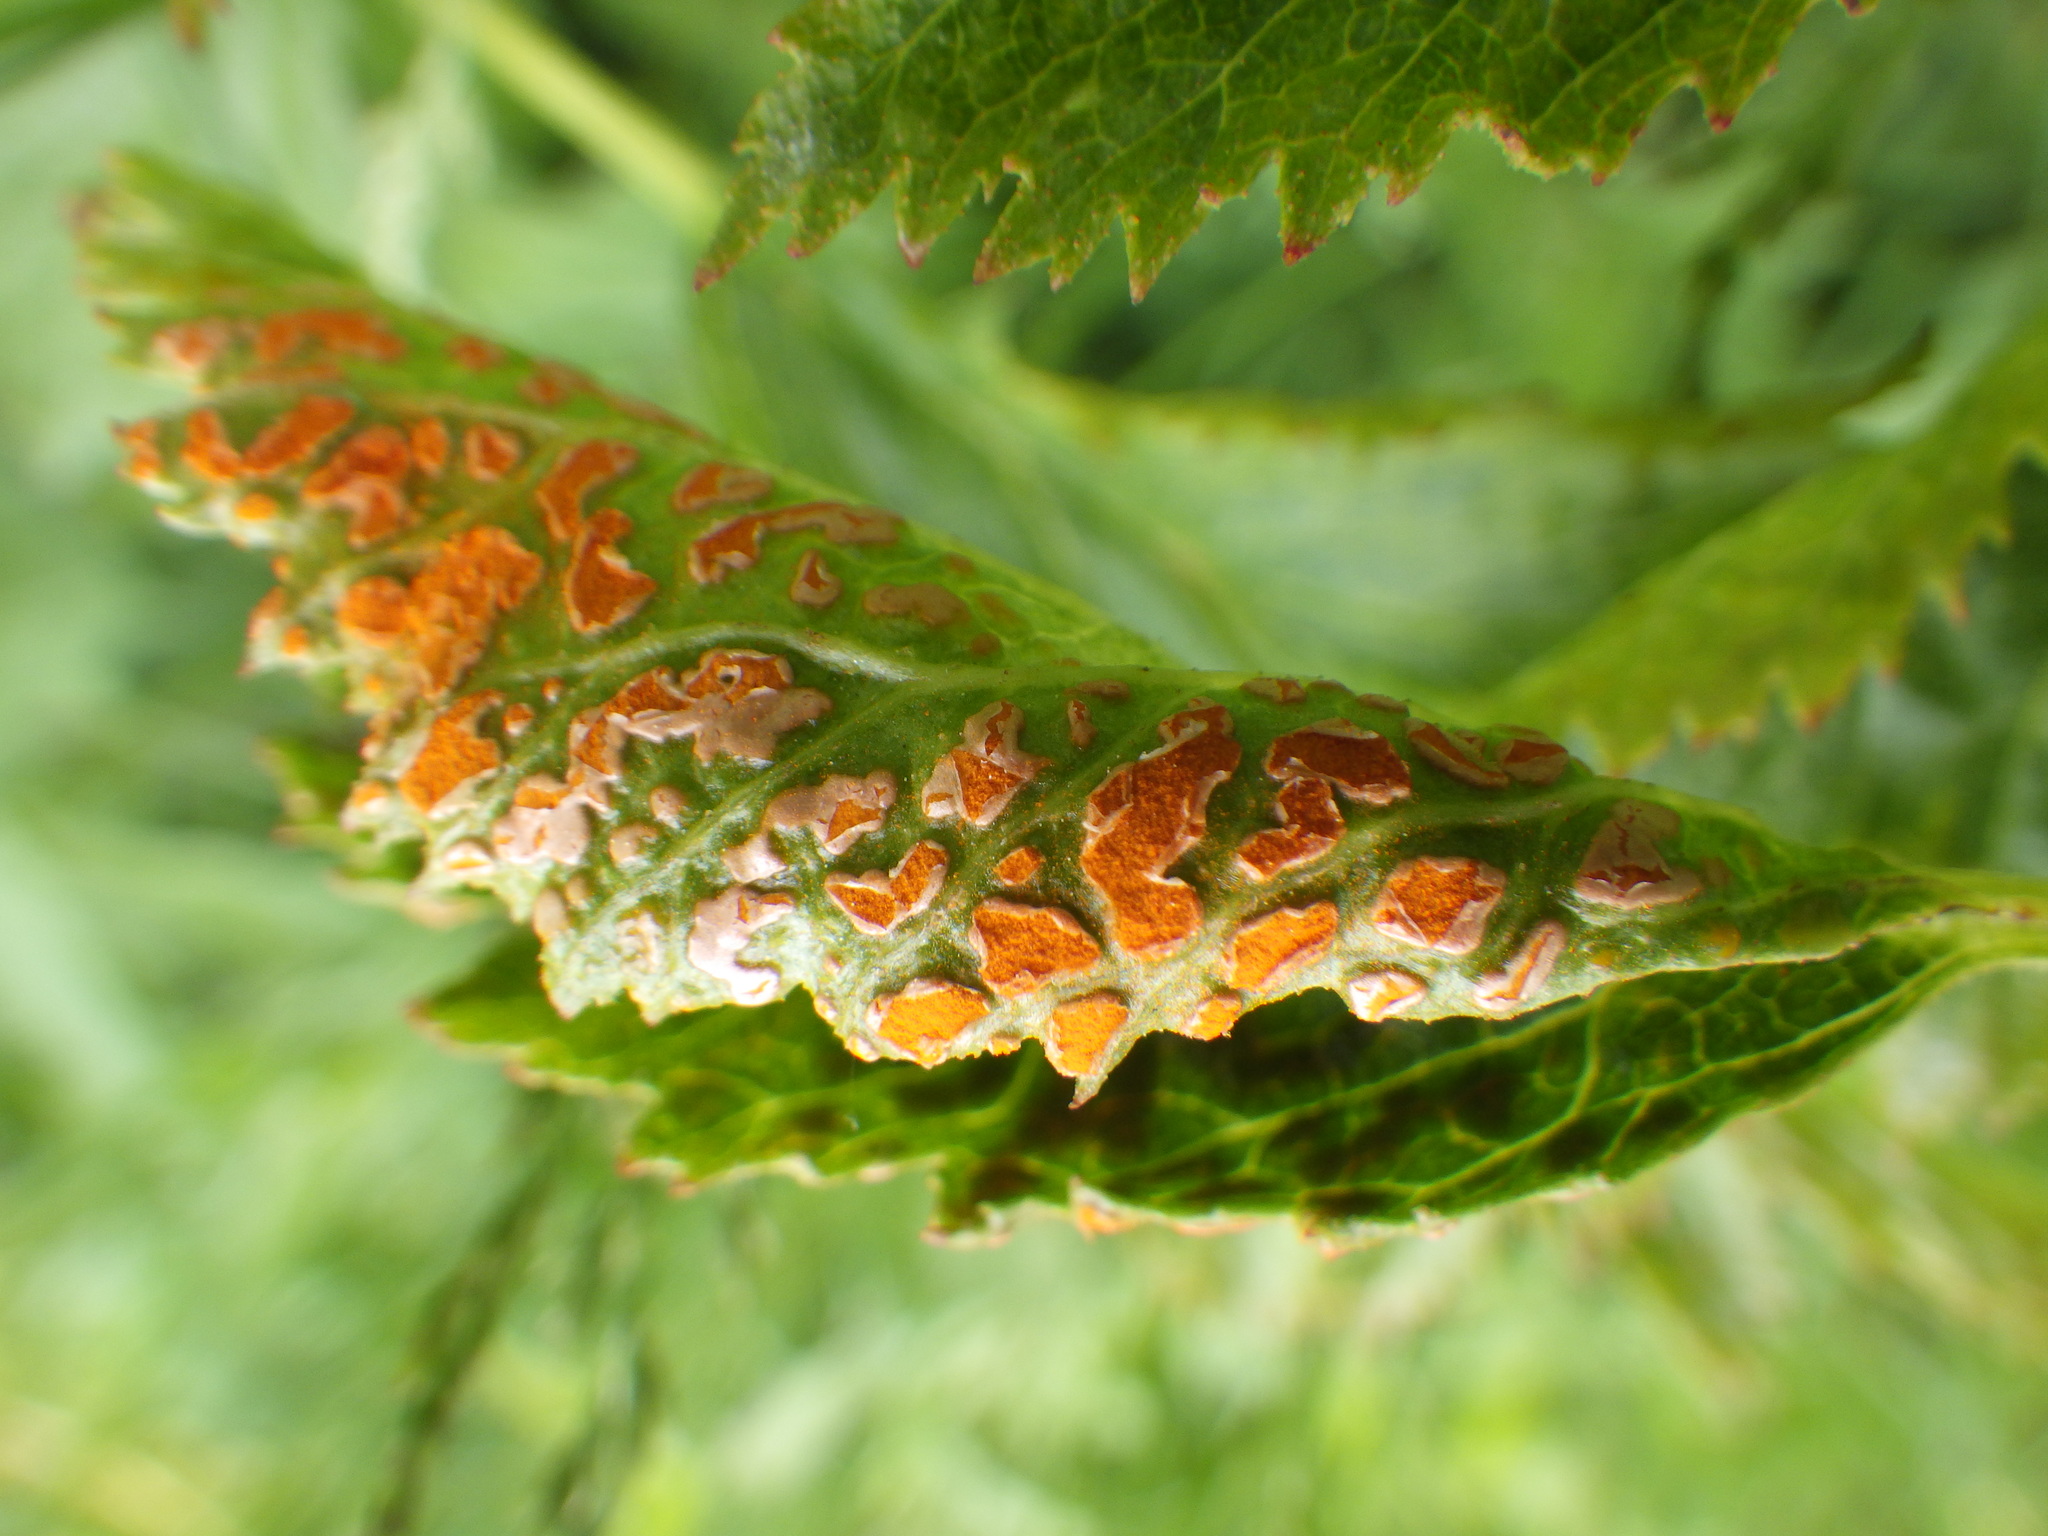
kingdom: Fungi
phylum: Basidiomycota
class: Pucciniomycetes
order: Pucciniales
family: Phragmidiaceae
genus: Arthuriomyces
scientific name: Arthuriomyces peckianus
